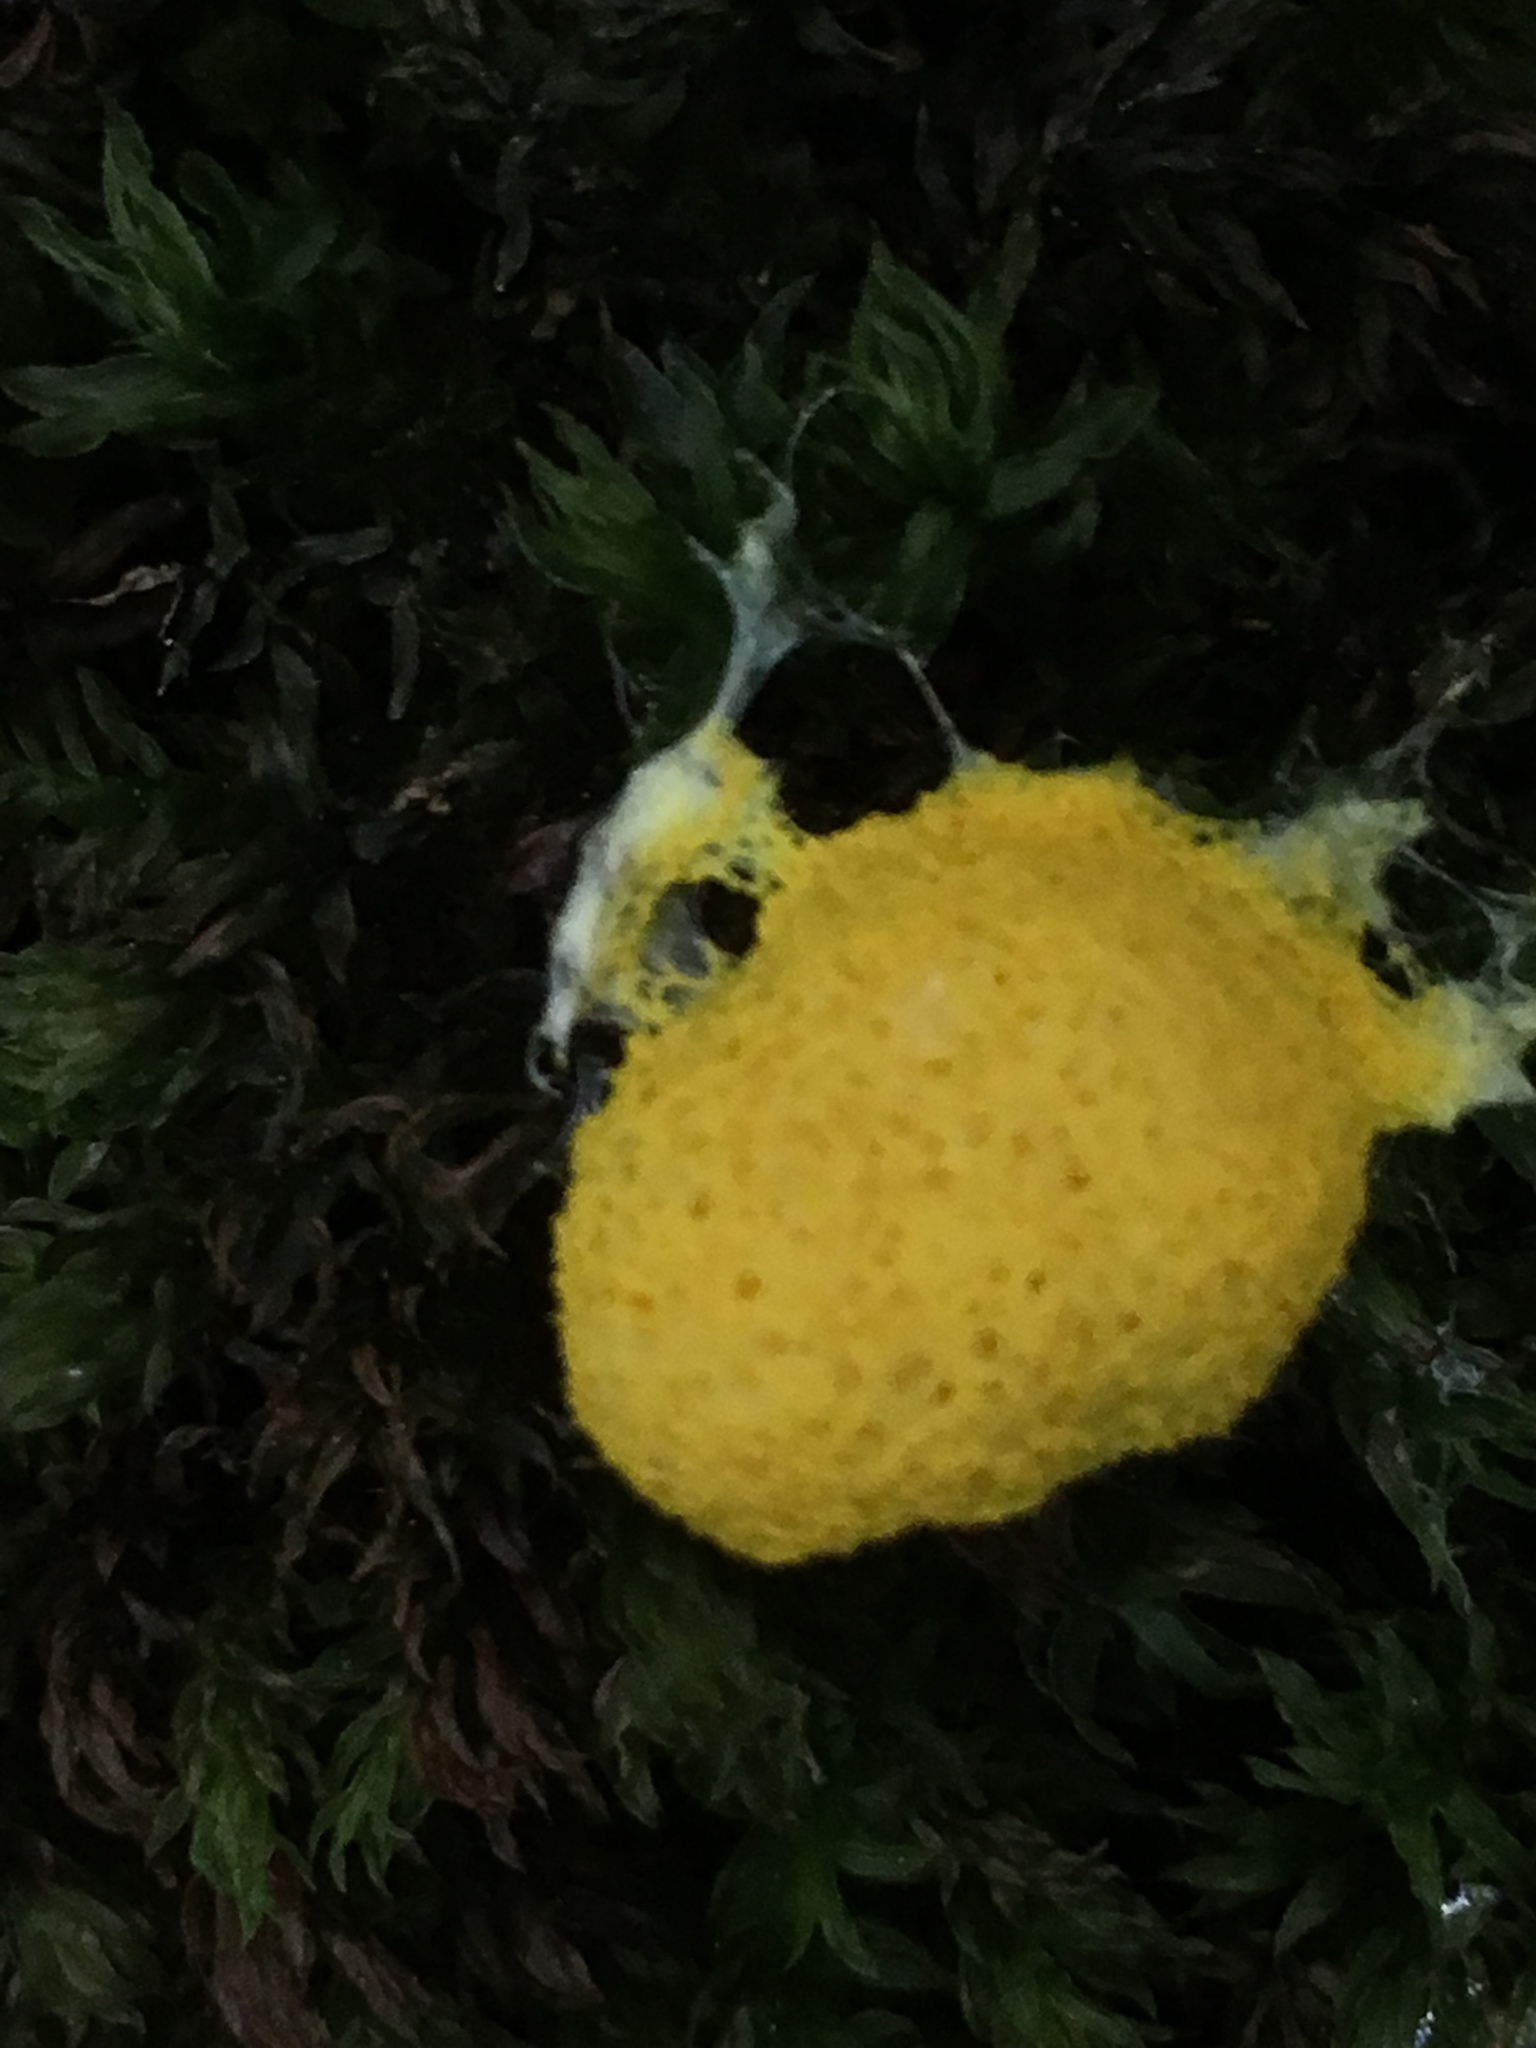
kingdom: Protozoa
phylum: Mycetozoa
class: Myxomycetes
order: Physarales
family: Physaraceae
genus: Fuligo
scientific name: Fuligo septica
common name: Dog vomit slime mold
